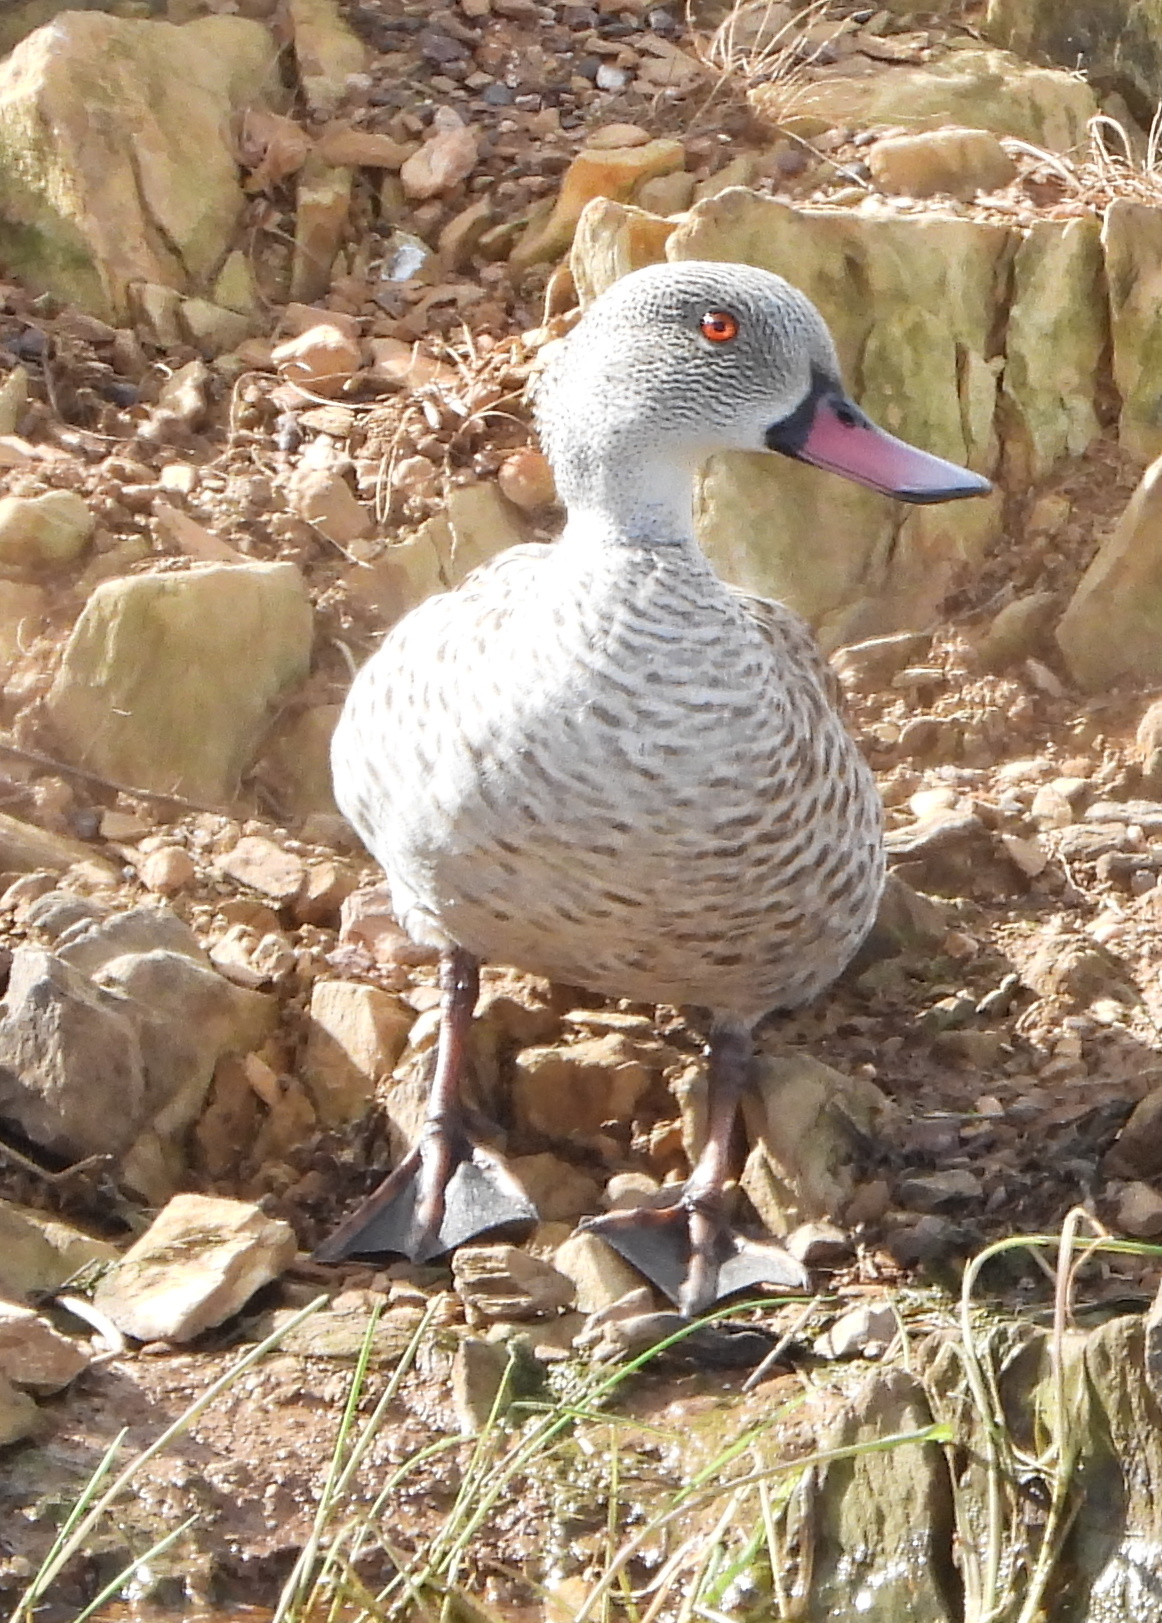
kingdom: Animalia
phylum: Chordata
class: Aves
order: Anseriformes
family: Anatidae
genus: Anas
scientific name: Anas capensis
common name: Cape teal
